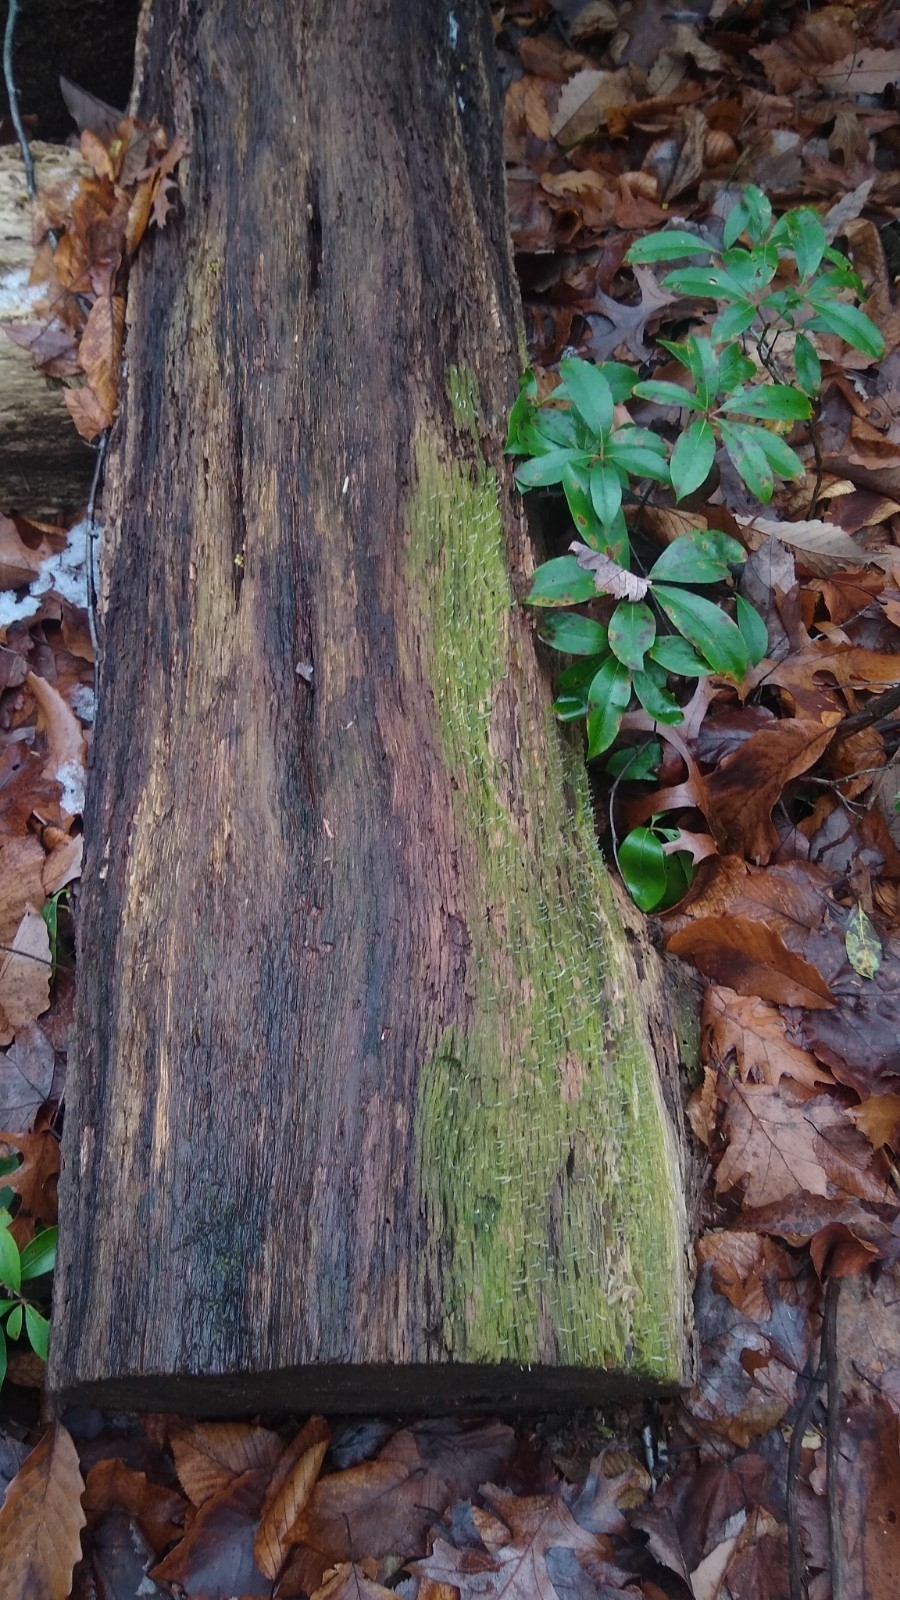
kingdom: Fungi
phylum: Basidiomycota
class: Agaricomycetes
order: Cantharellales
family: Hydnaceae
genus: Multiclavula
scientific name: Multiclavula mucida
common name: White green-algae coral
